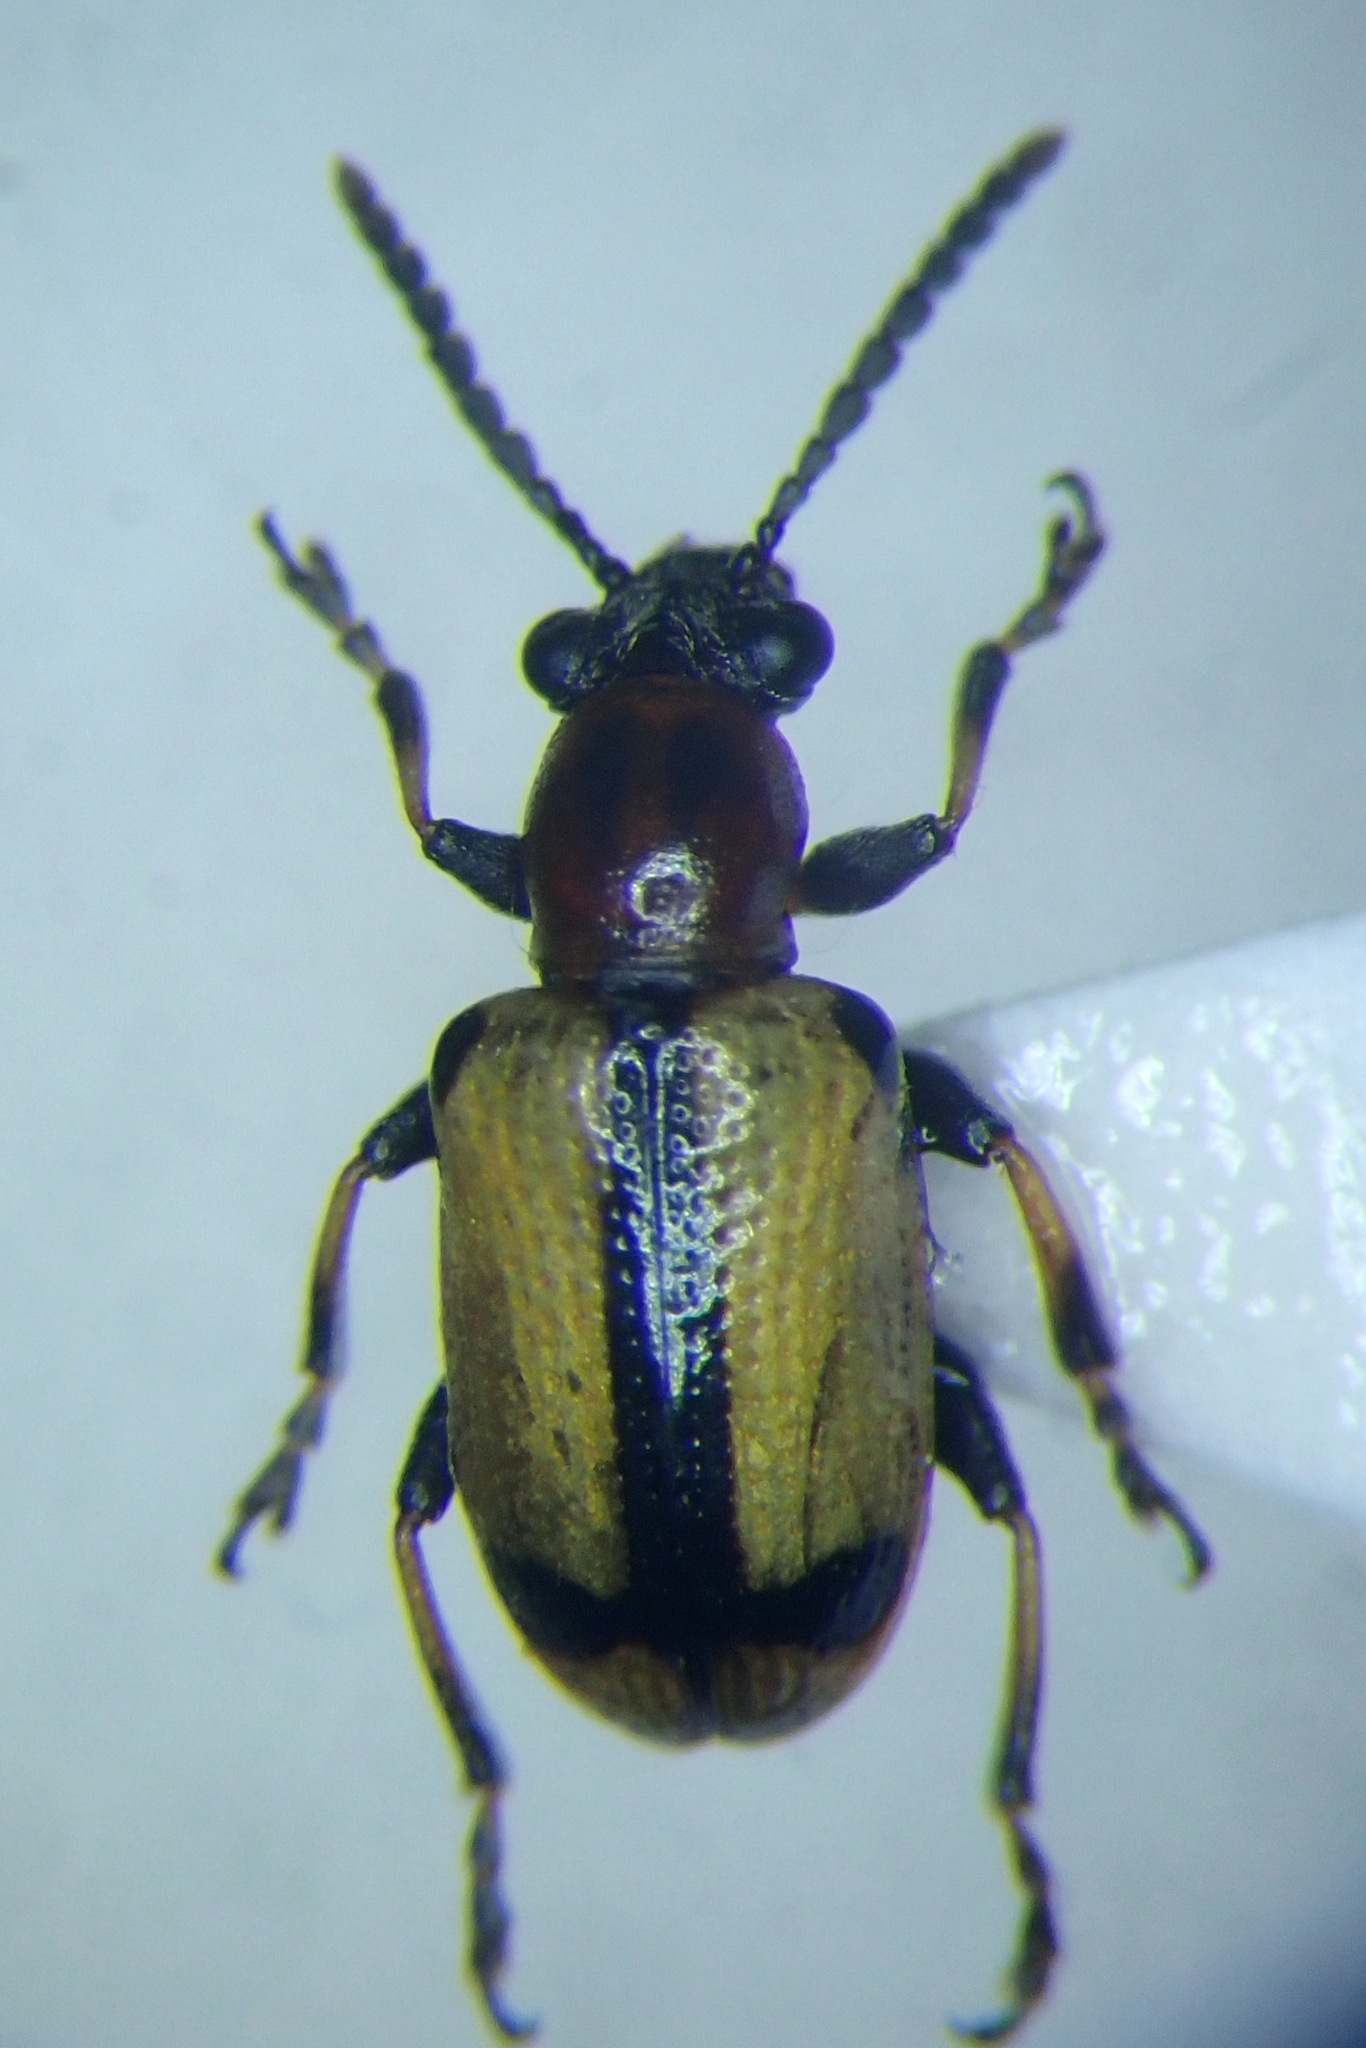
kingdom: Animalia
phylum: Arthropoda
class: Insecta
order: Coleoptera
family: Chrysomelidae
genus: Crioceris
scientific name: Crioceris paracenthesis
